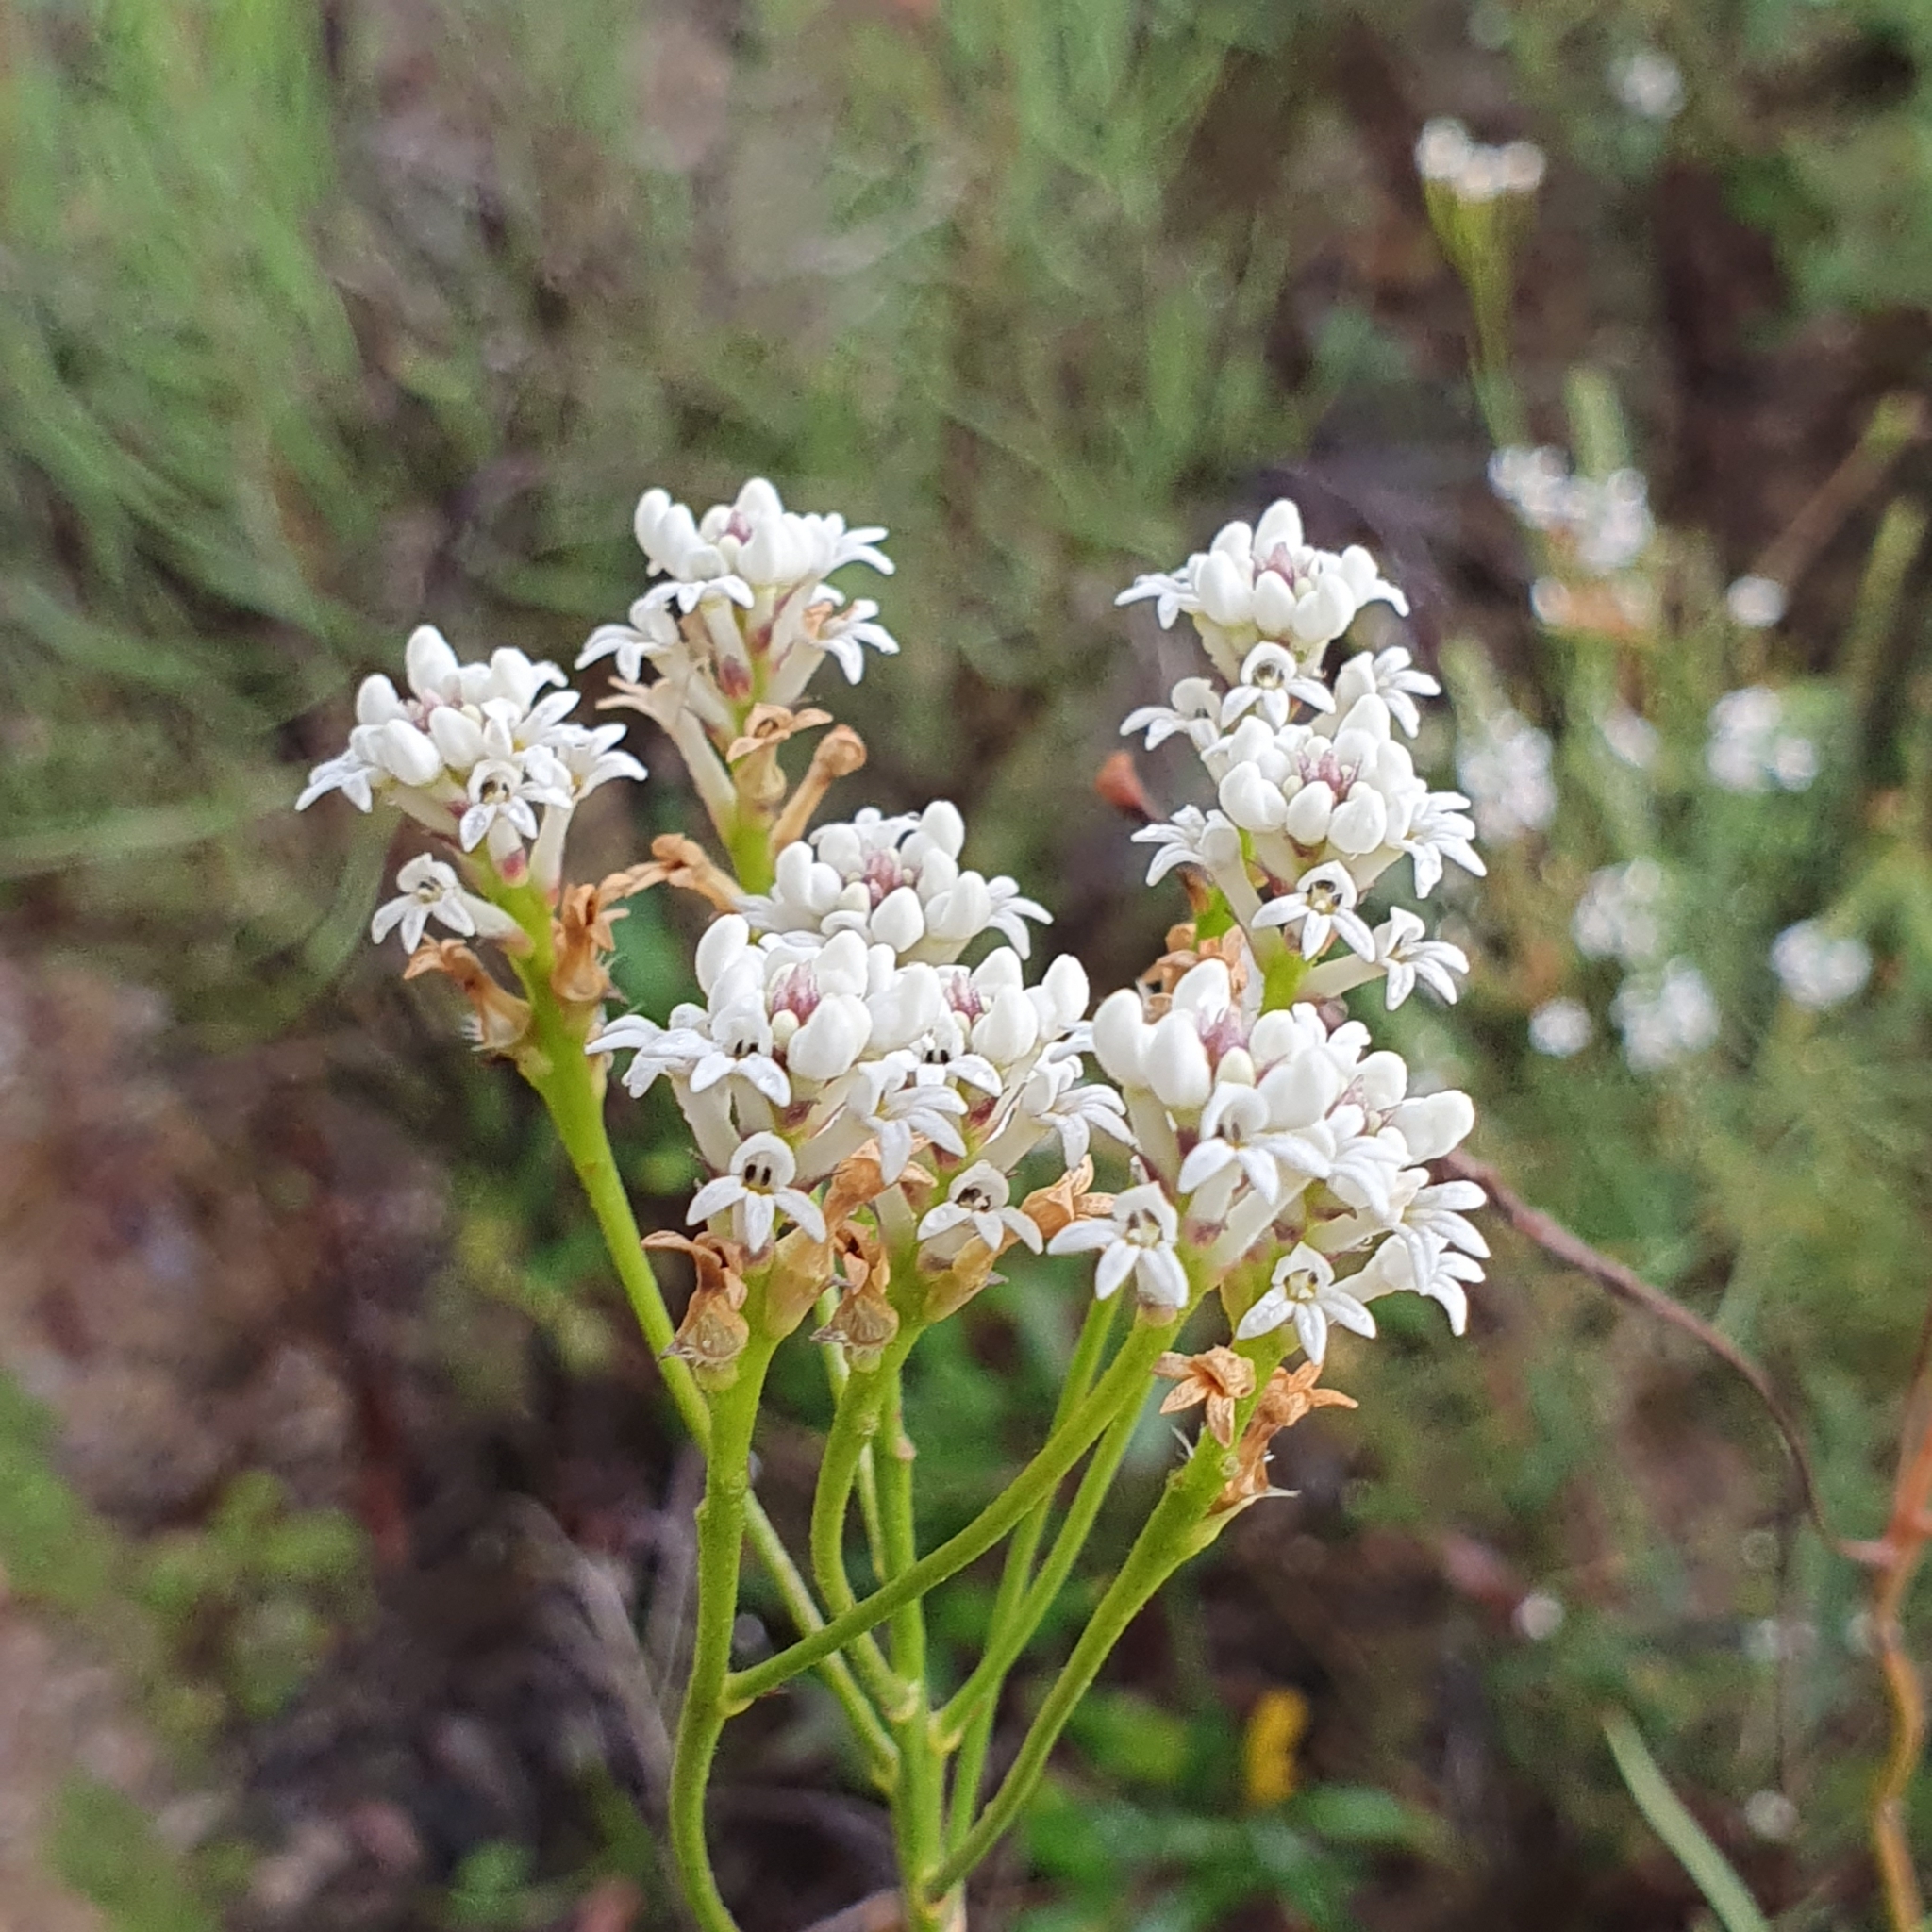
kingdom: Plantae
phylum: Tracheophyta
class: Magnoliopsida
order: Proteales
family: Proteaceae
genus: Conospermum
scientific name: Conospermum longifolium
